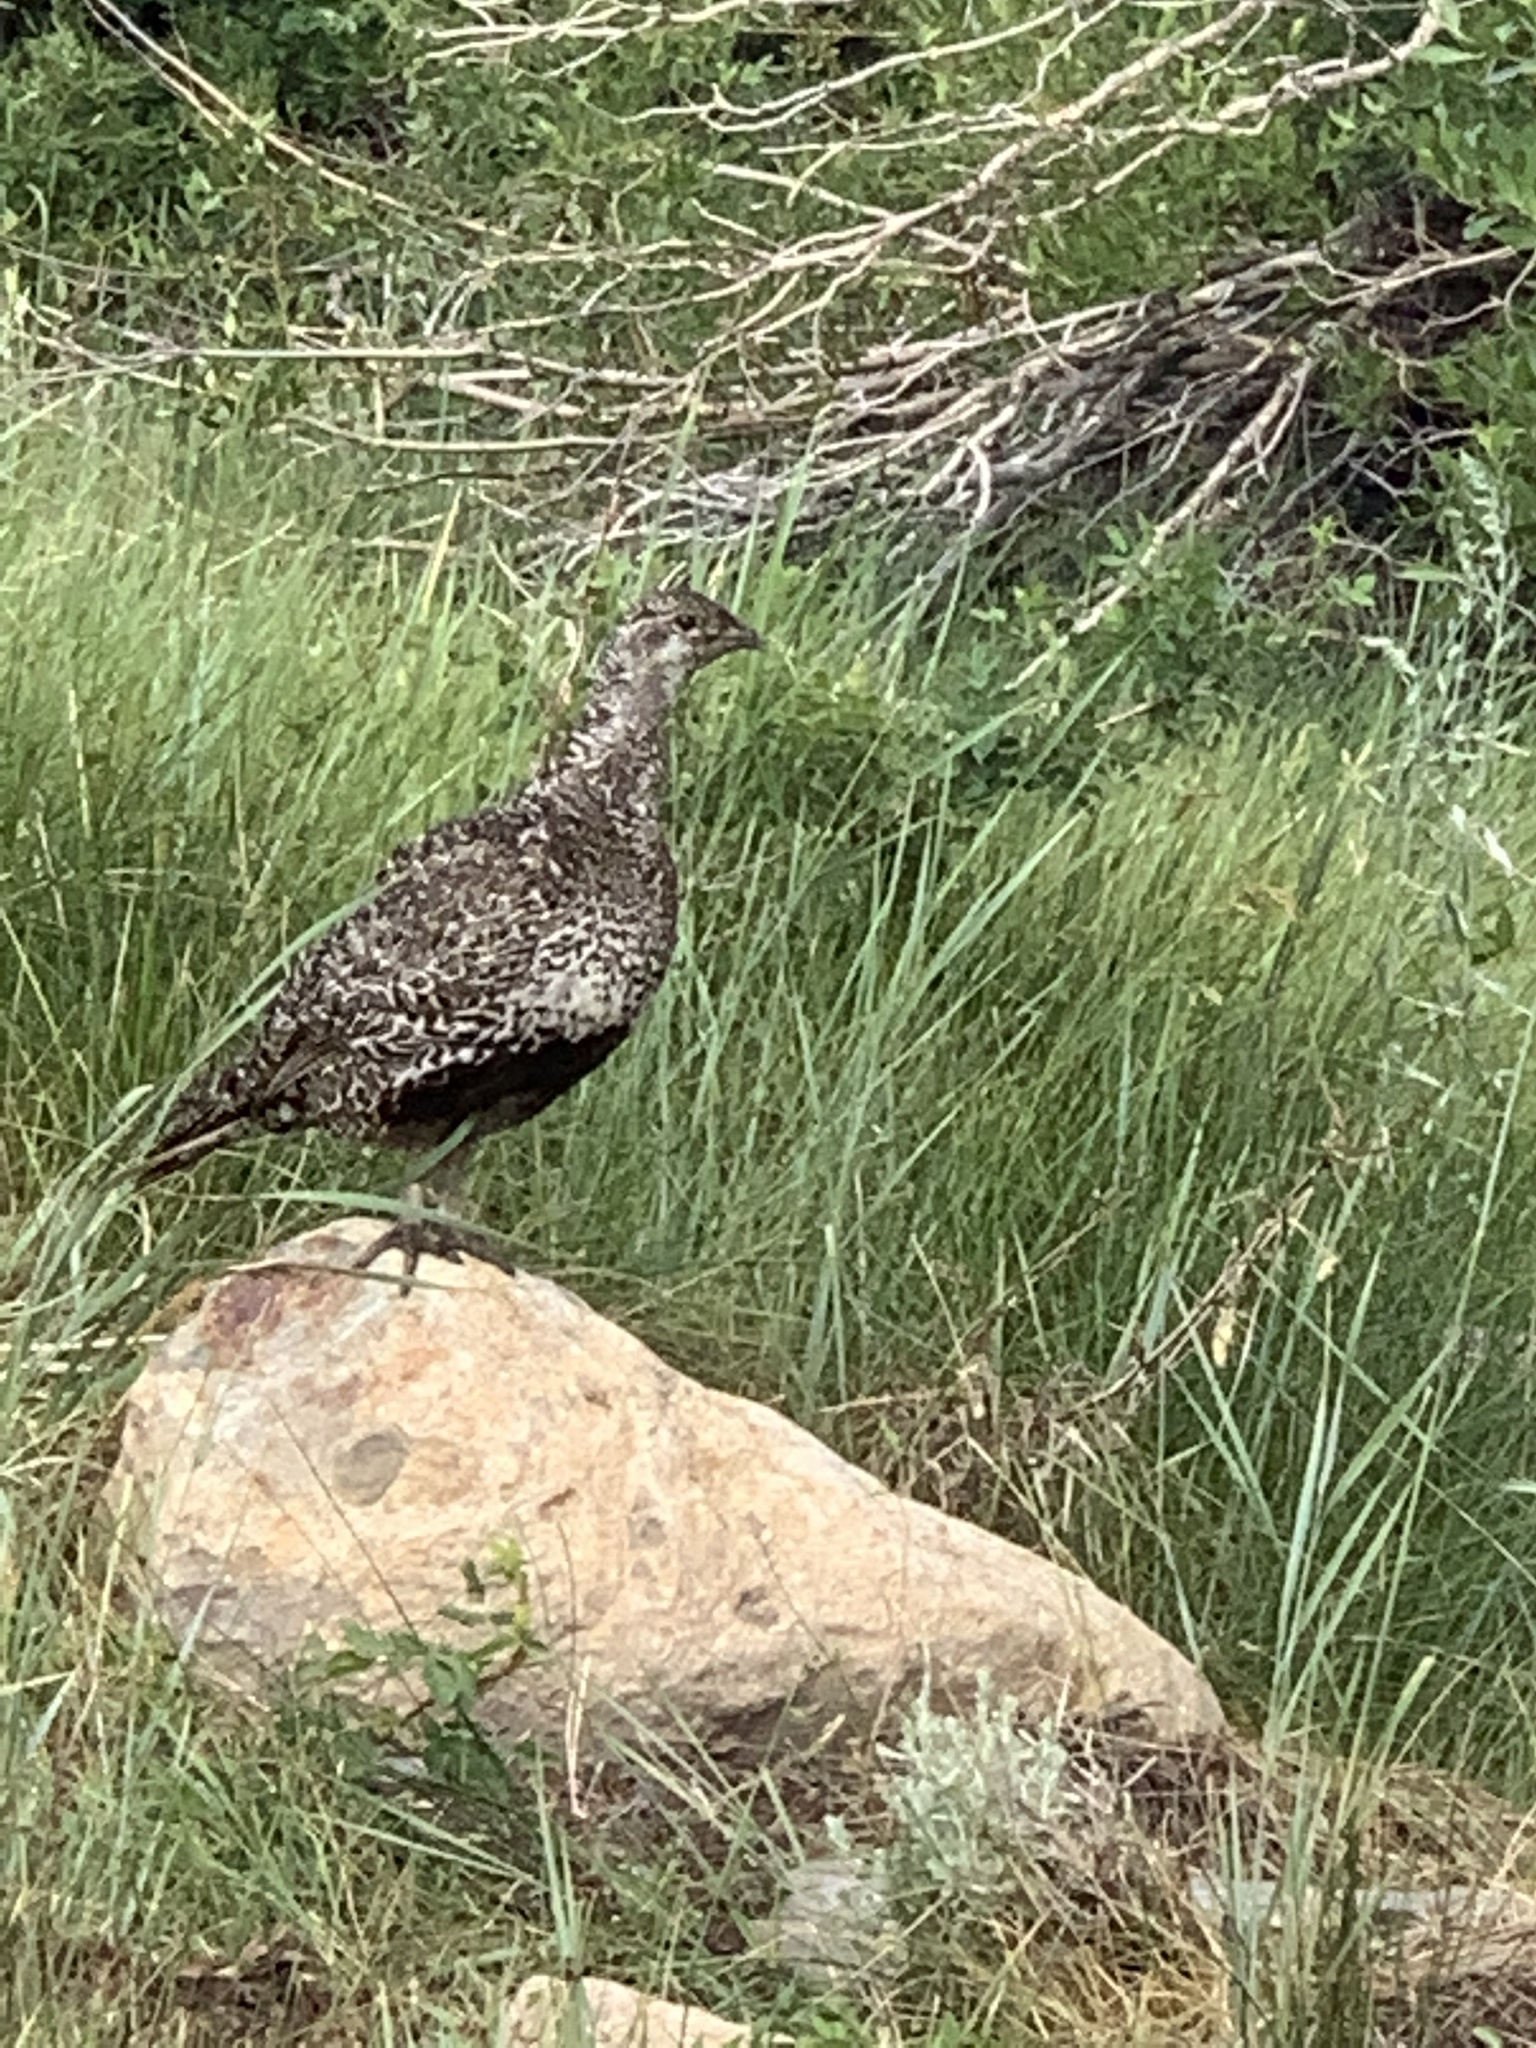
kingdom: Animalia
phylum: Chordata
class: Aves
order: Galliformes
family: Phasianidae
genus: Centrocercus
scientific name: Centrocercus urophasianus
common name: Sage grouse
